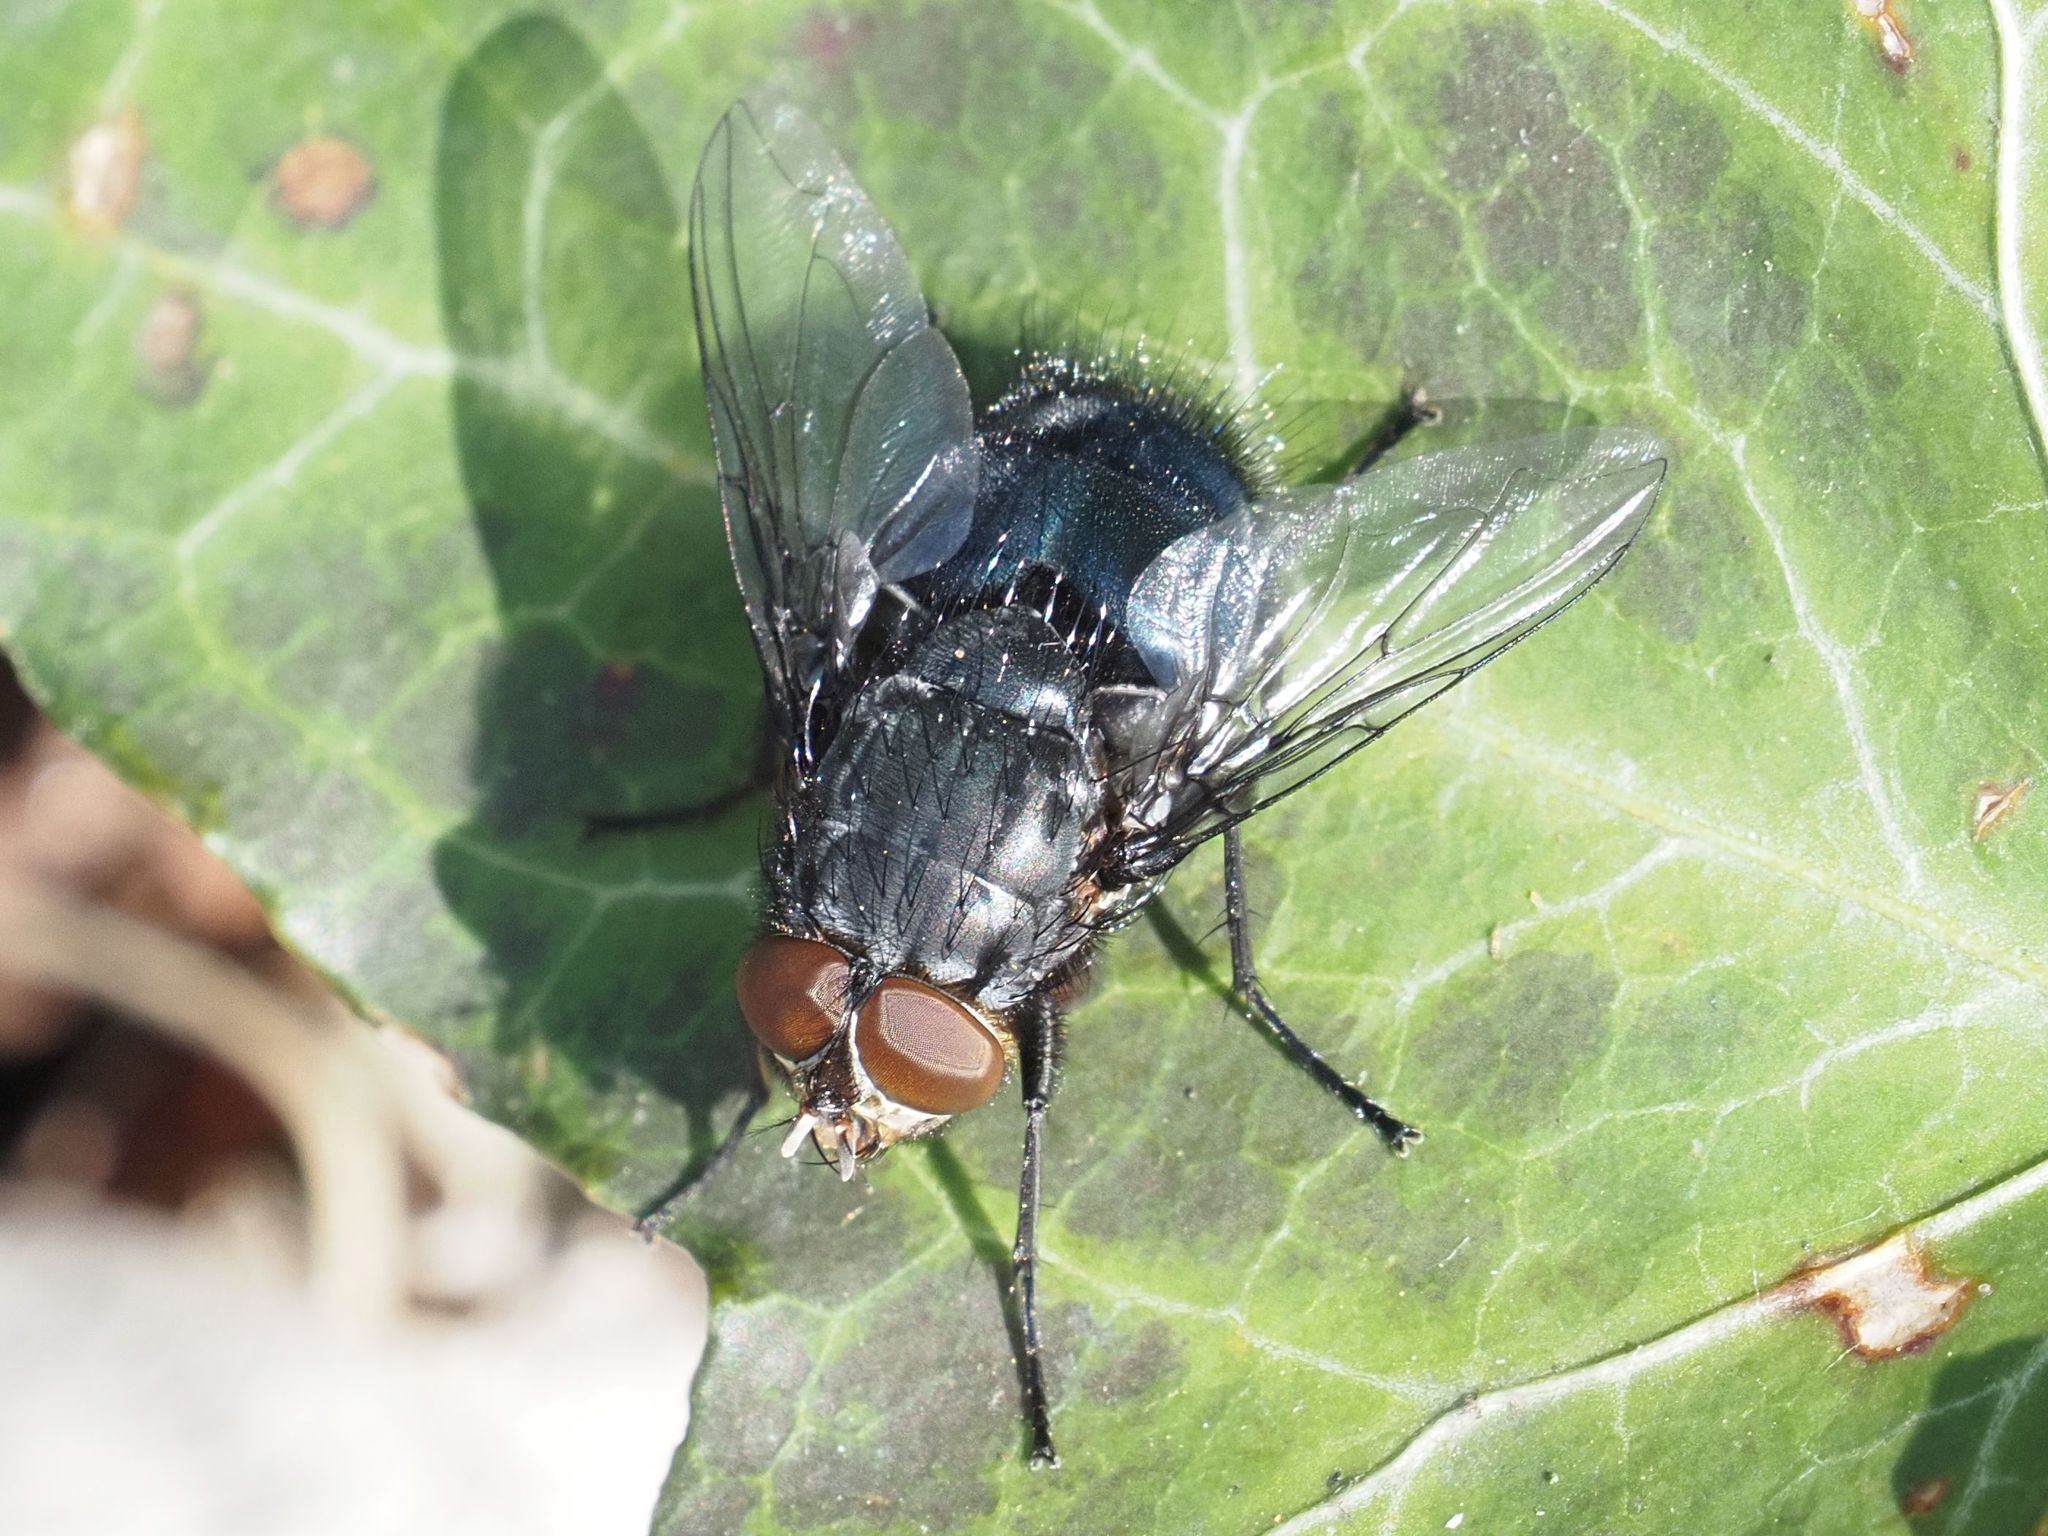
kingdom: Animalia
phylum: Arthropoda
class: Insecta
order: Diptera
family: Calliphoridae
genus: Calliphora
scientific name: Calliphora vomitoria
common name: Blue bottle fly
